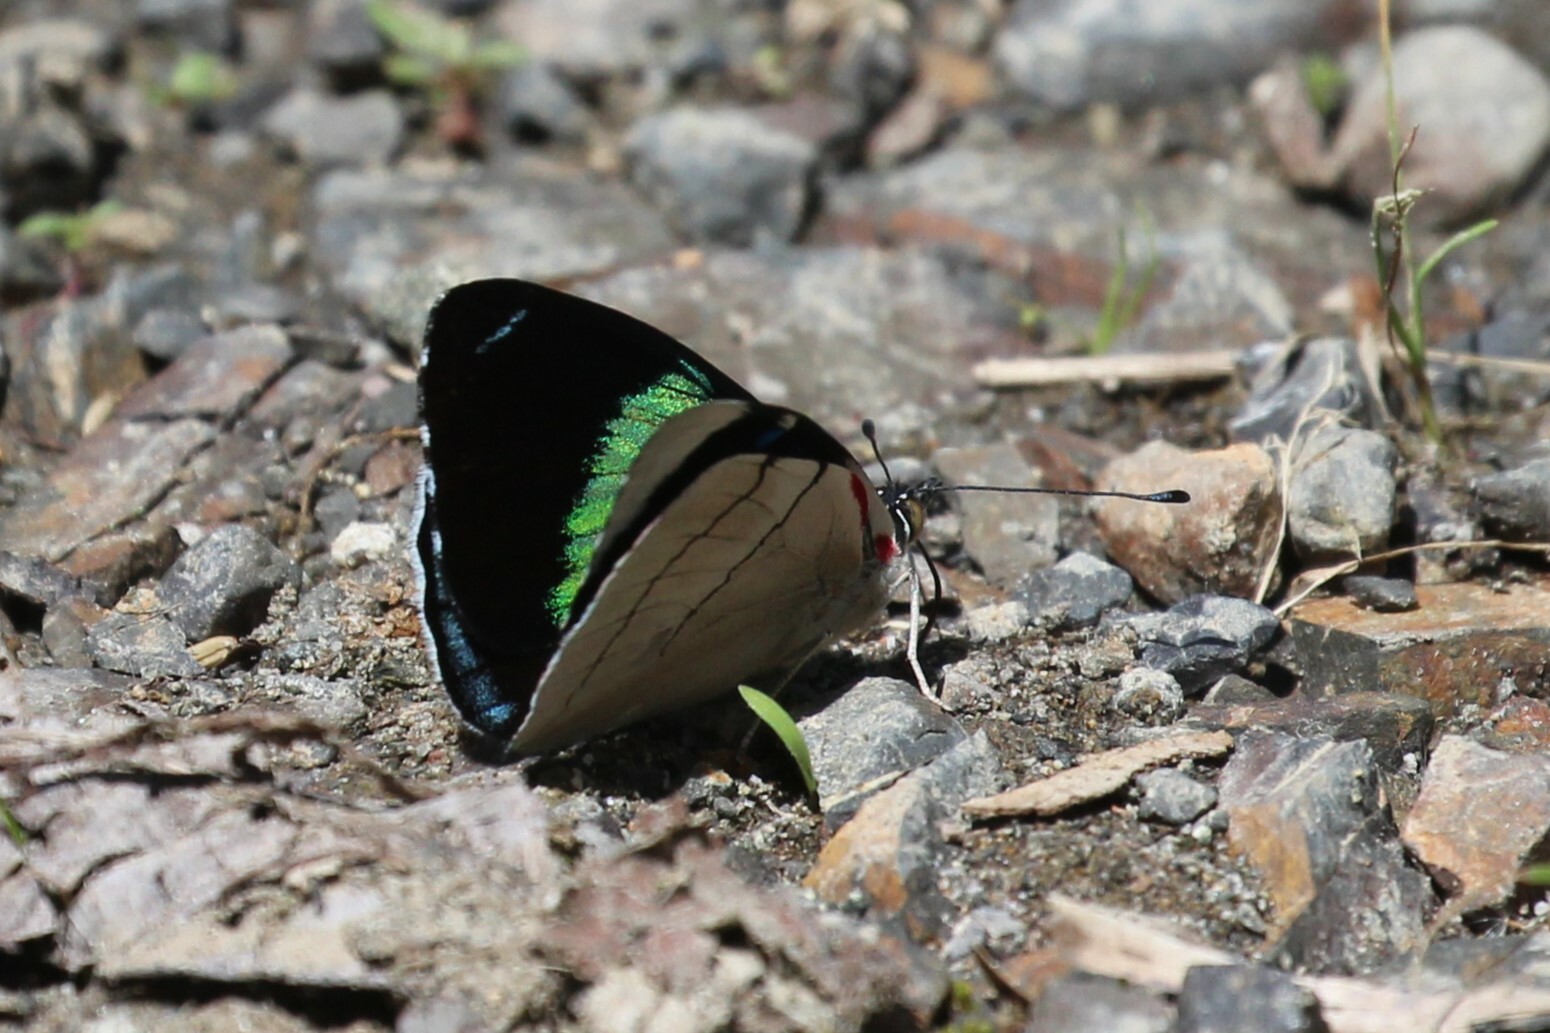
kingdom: Animalia
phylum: Arthropoda
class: Insecta
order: Lepidoptera
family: Nymphalidae
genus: Perisama
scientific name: Perisama bomplandii
